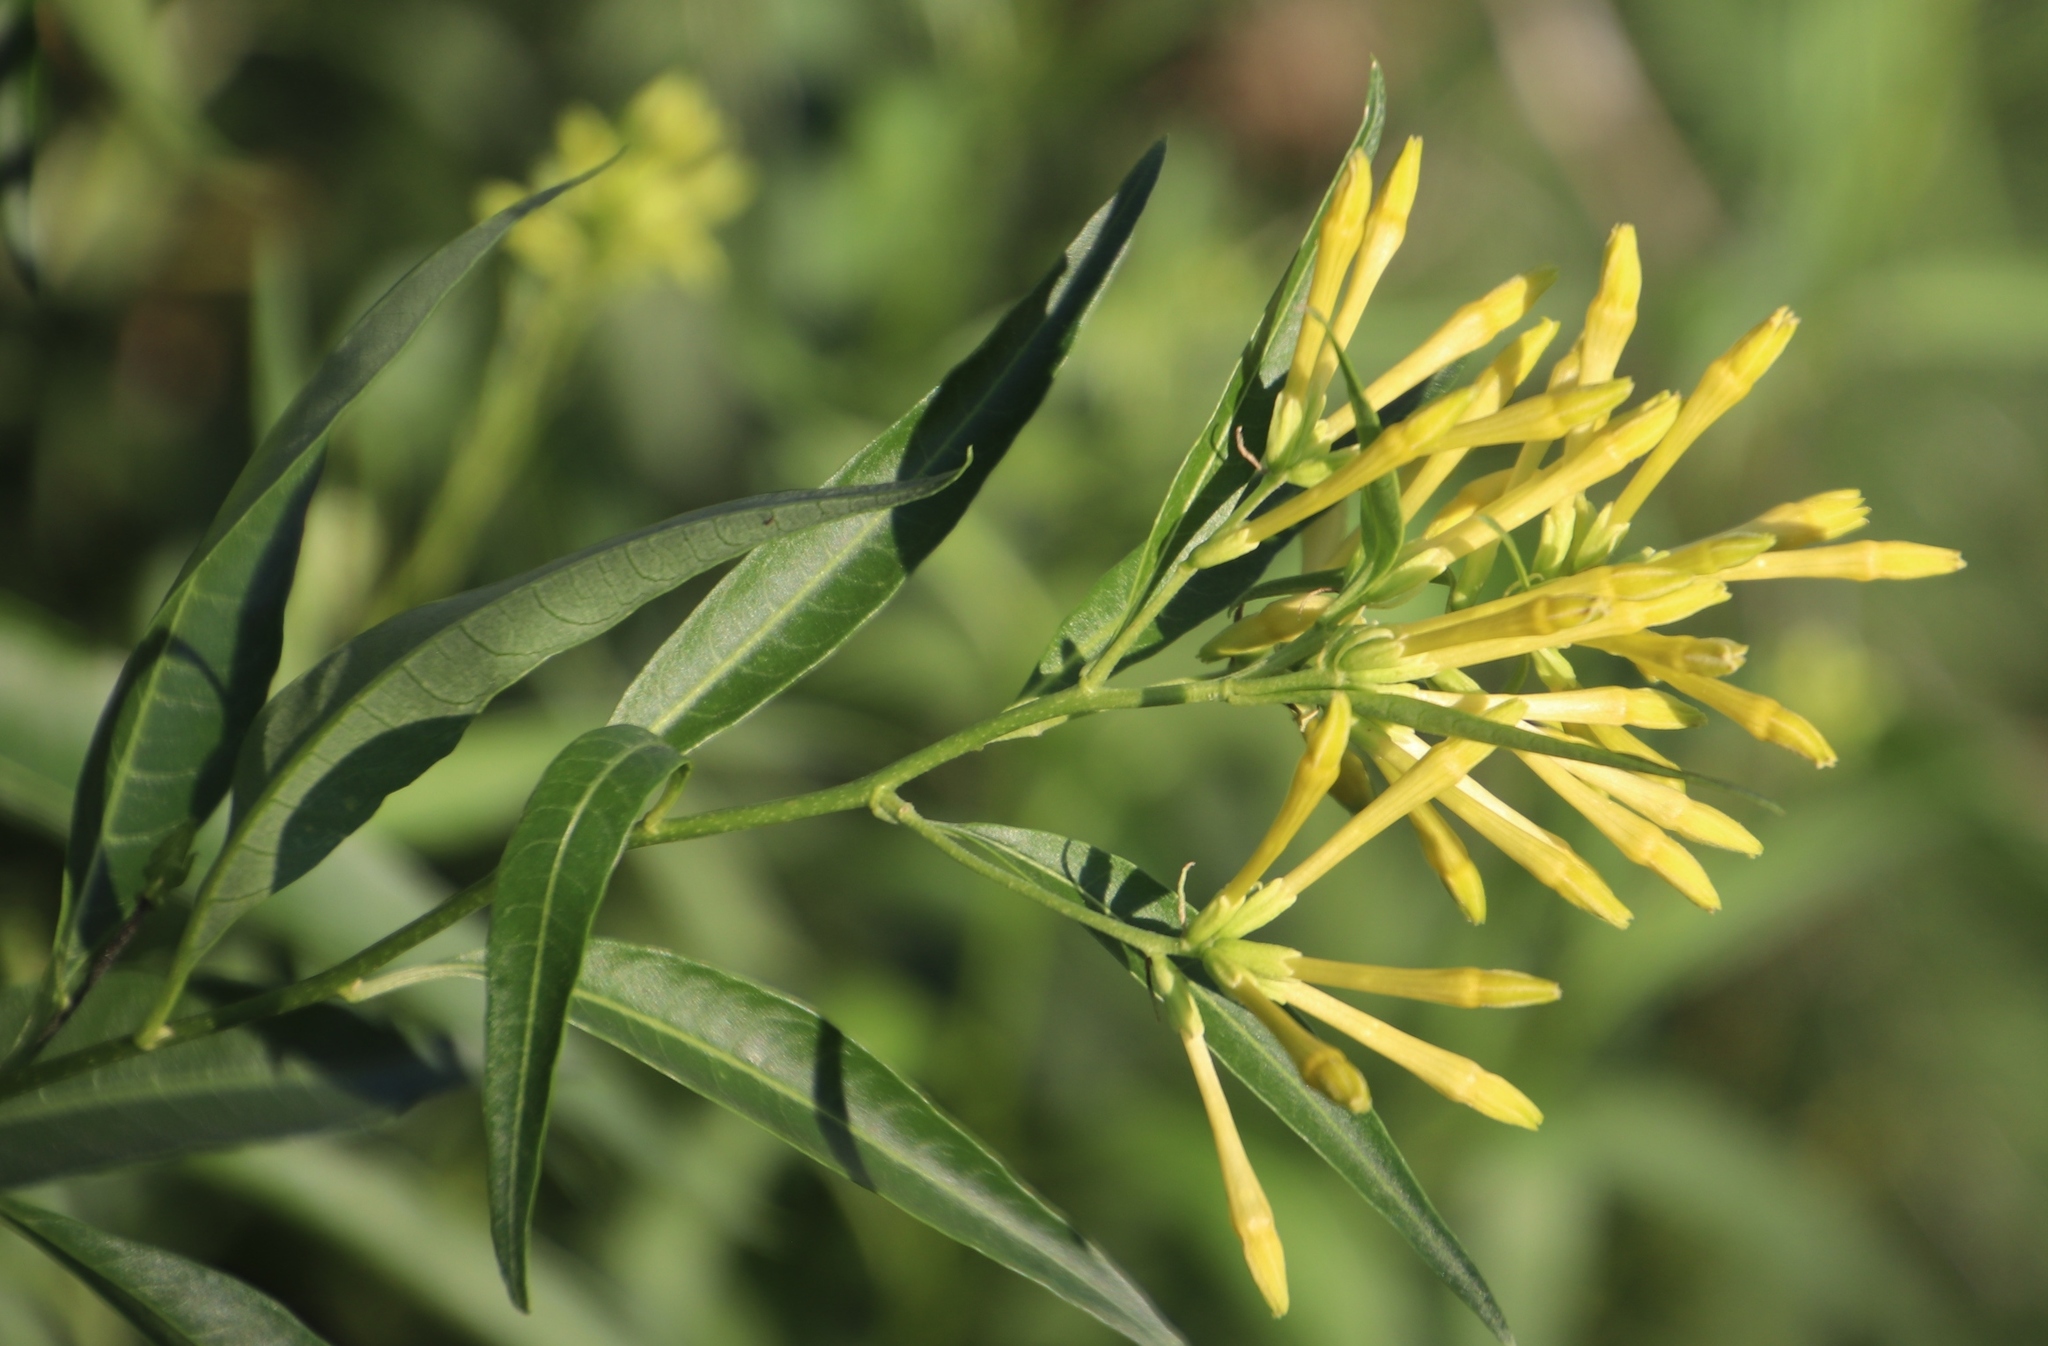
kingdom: Plantae
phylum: Tracheophyta
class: Magnoliopsida
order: Solanales
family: Solanaceae
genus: Cestrum
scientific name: Cestrum parqui
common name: Chilean cestrum
